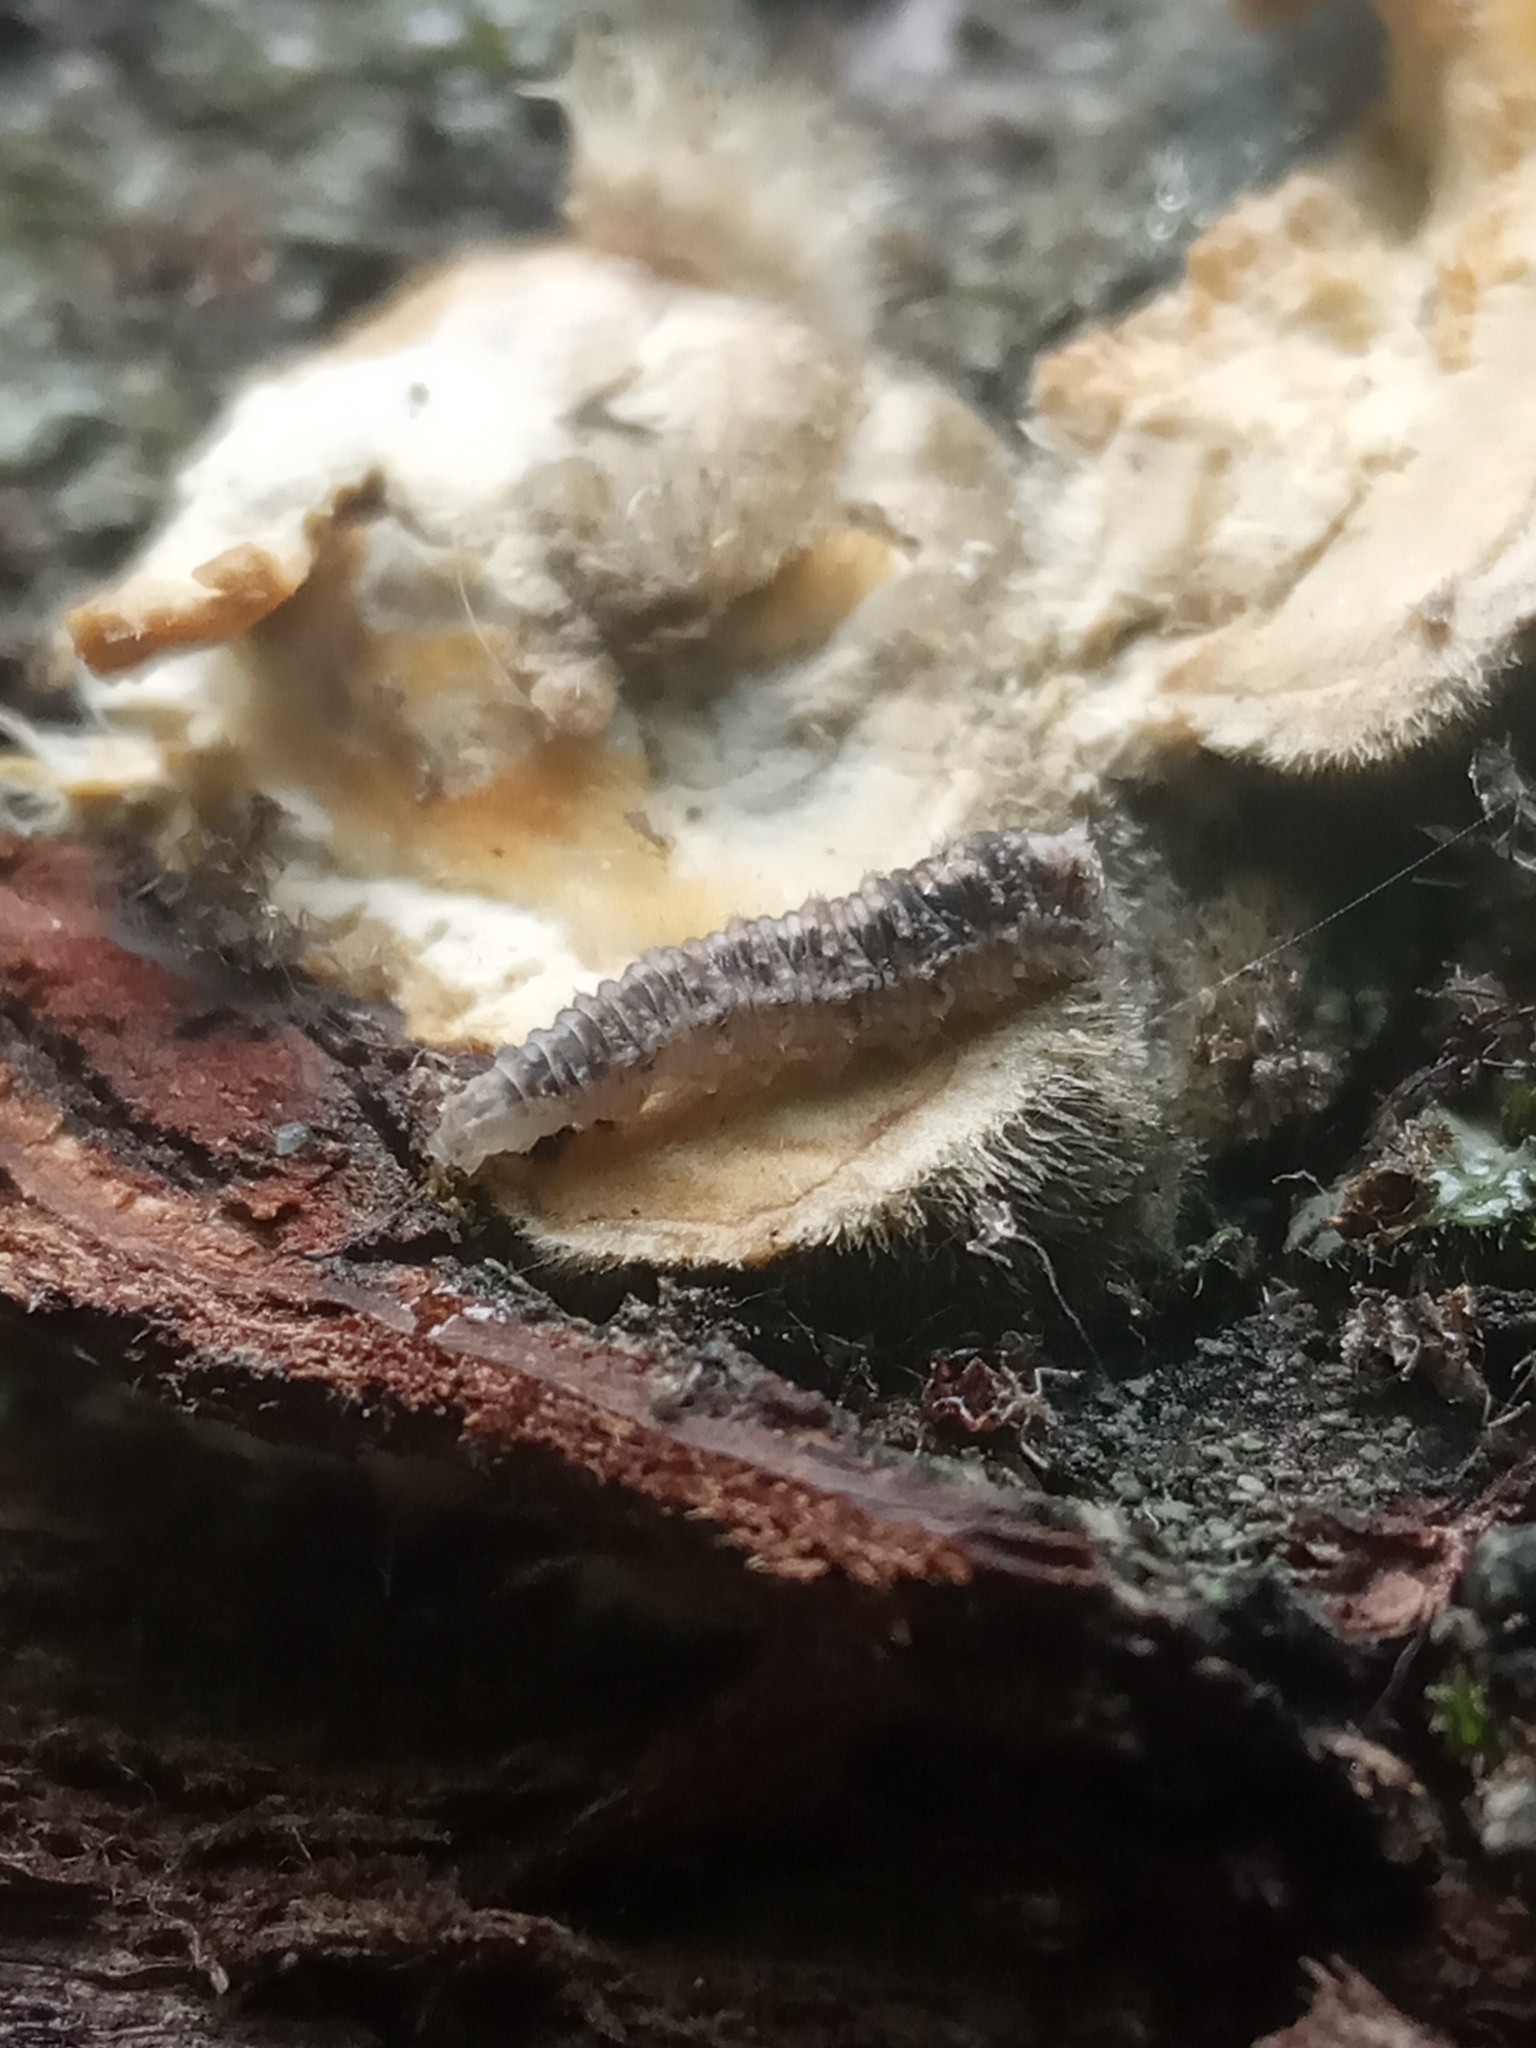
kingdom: Animalia
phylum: Arthropoda
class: Insecta
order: Diptera
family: Syrphidae
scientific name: Syrphidae
